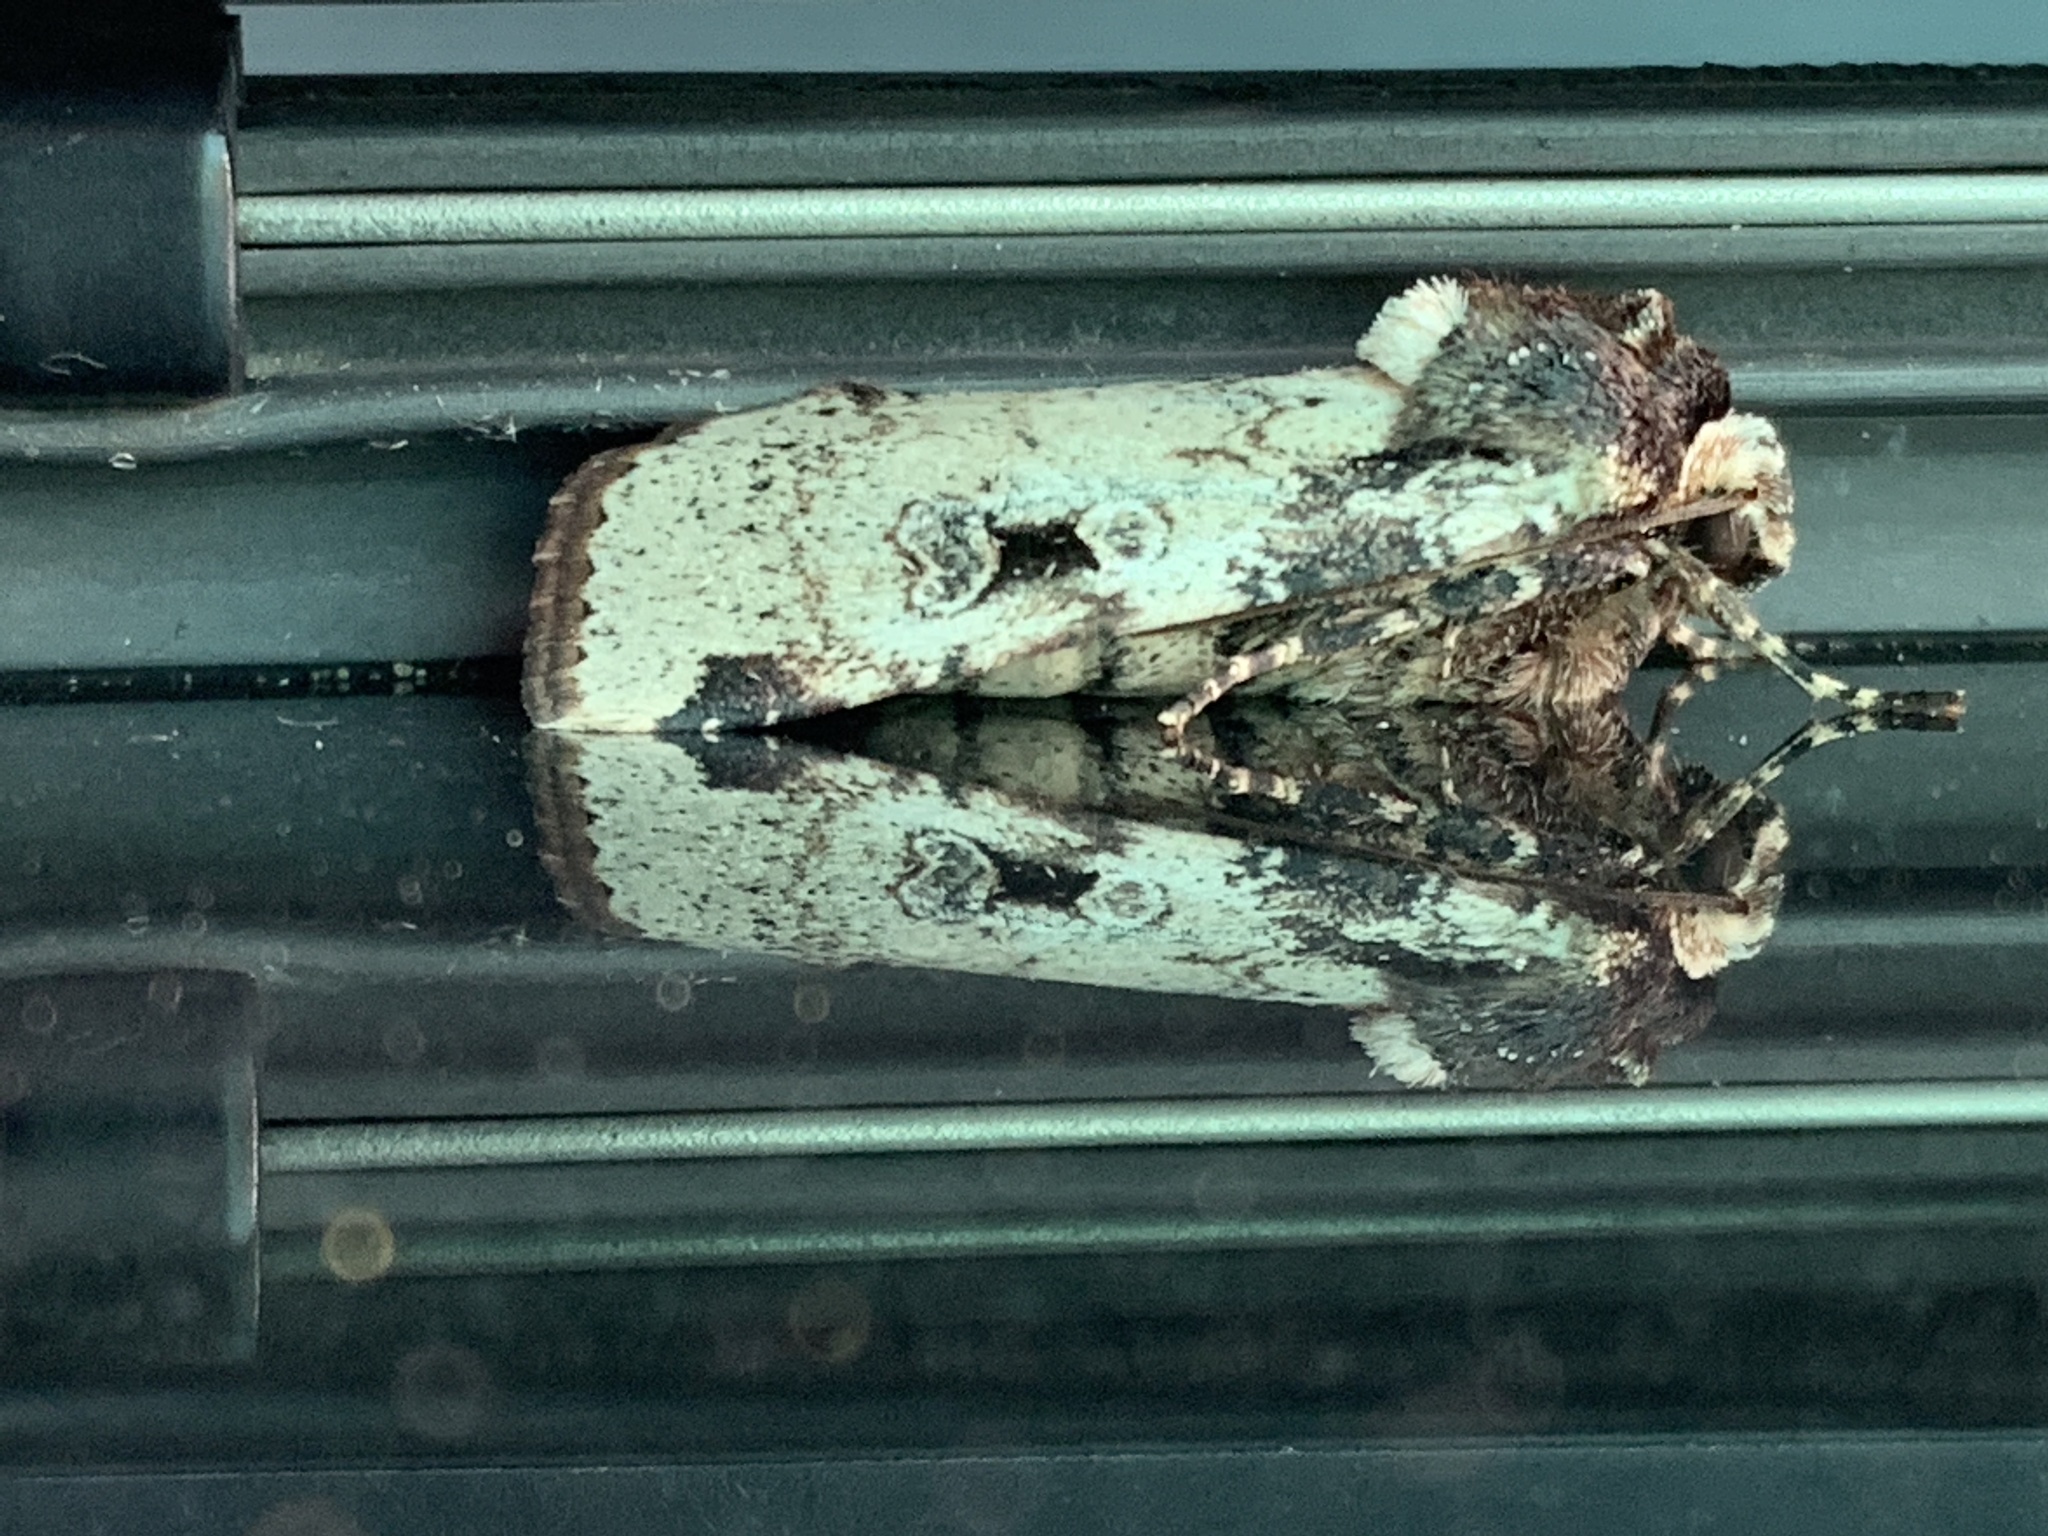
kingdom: Animalia
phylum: Arthropoda
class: Insecta
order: Lepidoptera
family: Noctuidae
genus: Mentaxya
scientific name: Mentaxya ignicollis
